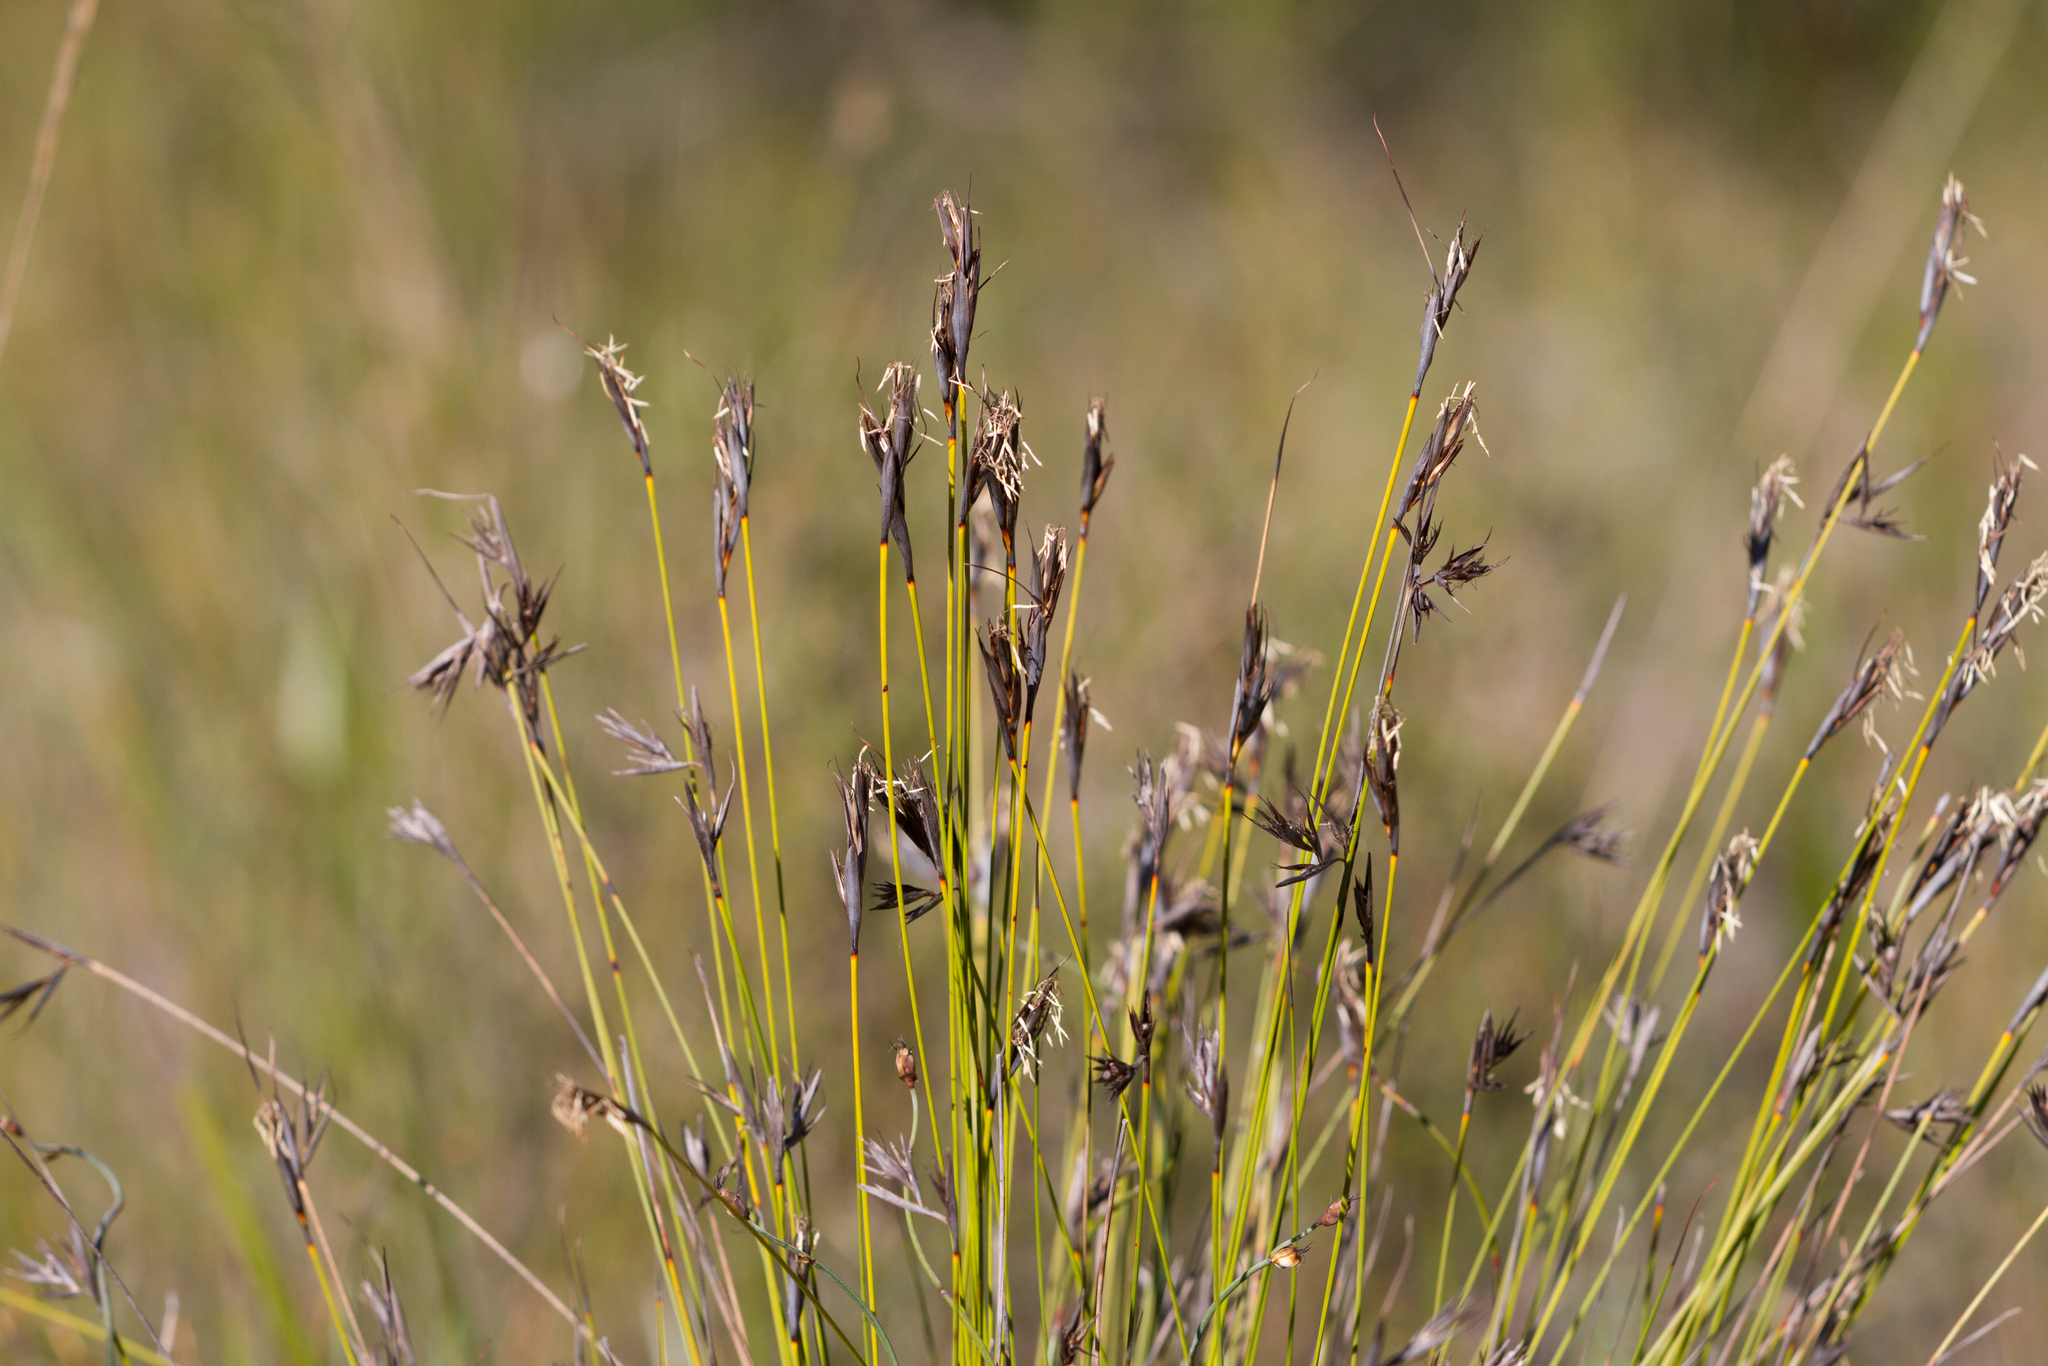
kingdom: Plantae
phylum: Tracheophyta
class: Liliopsida
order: Poales
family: Cyperaceae
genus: Lepidosperma
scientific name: Lepidosperma carphoides
